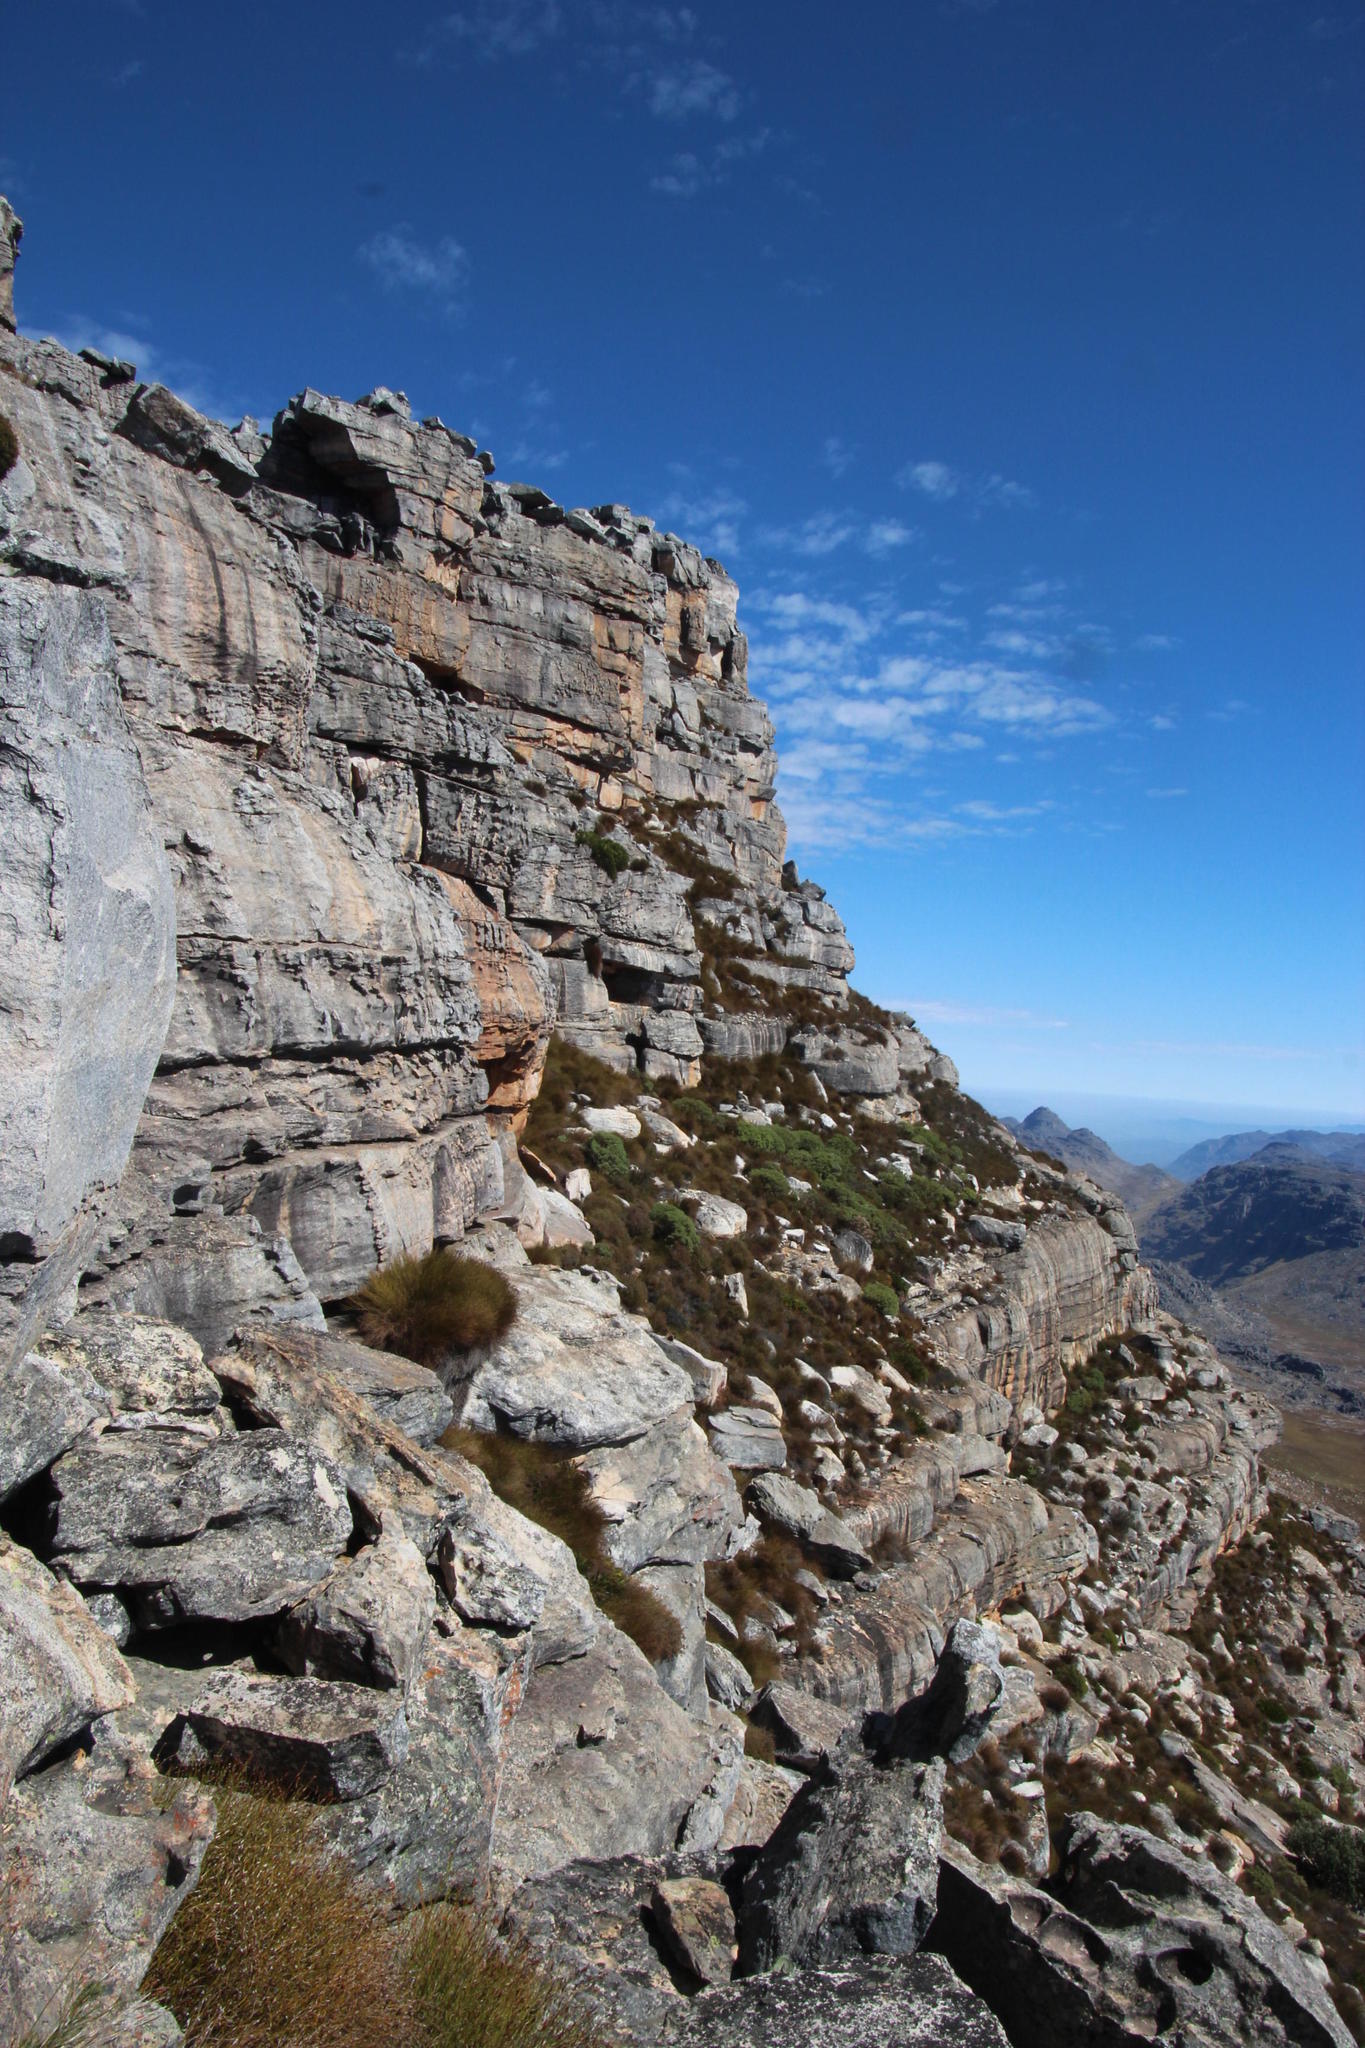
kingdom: Plantae
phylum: Tracheophyta
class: Magnoliopsida
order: Proteales
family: Proteaceae
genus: Protea
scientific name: Protea cryophila
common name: Snow protea
